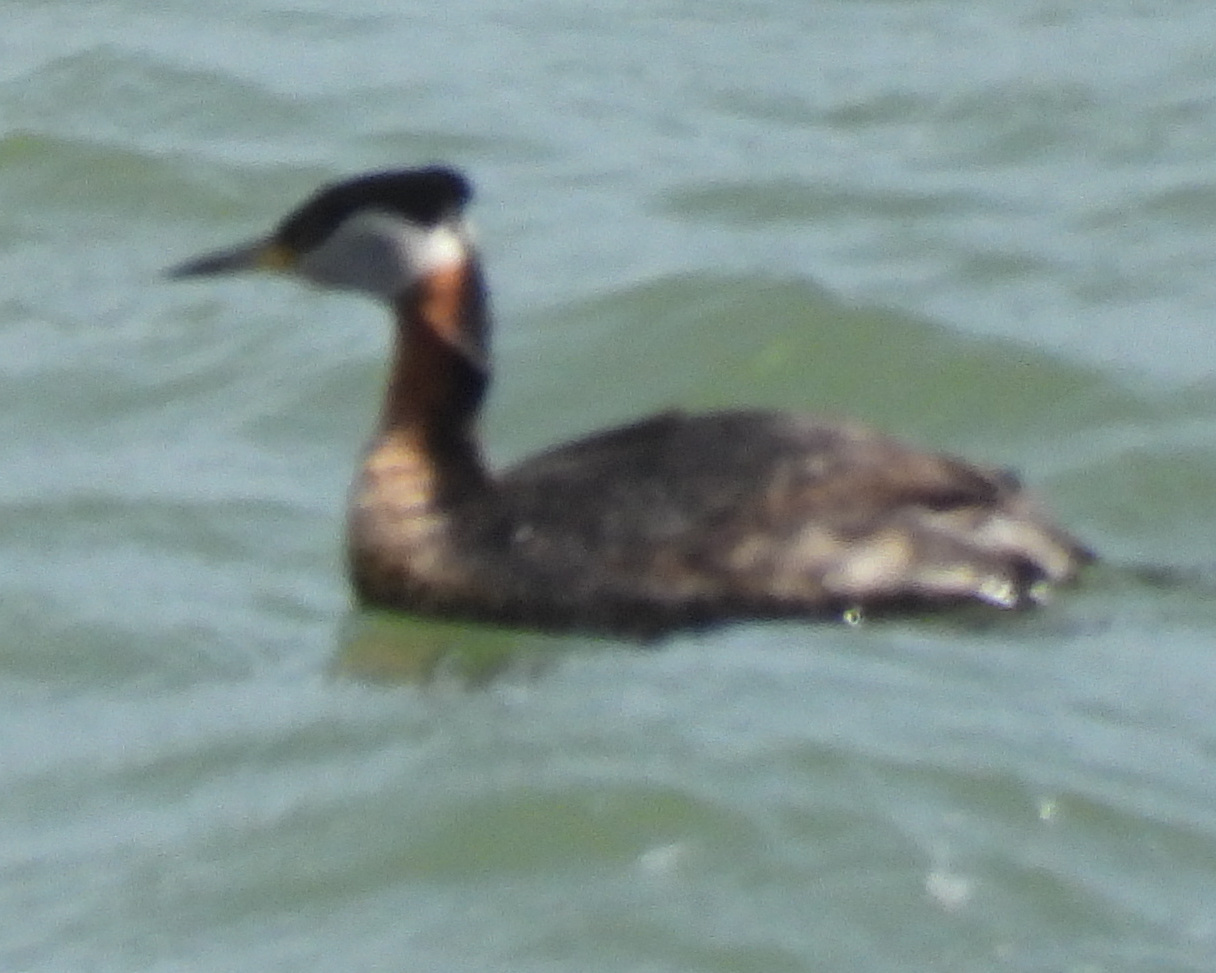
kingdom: Animalia
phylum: Chordata
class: Aves
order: Podicipediformes
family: Podicipedidae
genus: Podiceps
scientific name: Podiceps grisegena
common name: Red-necked grebe
